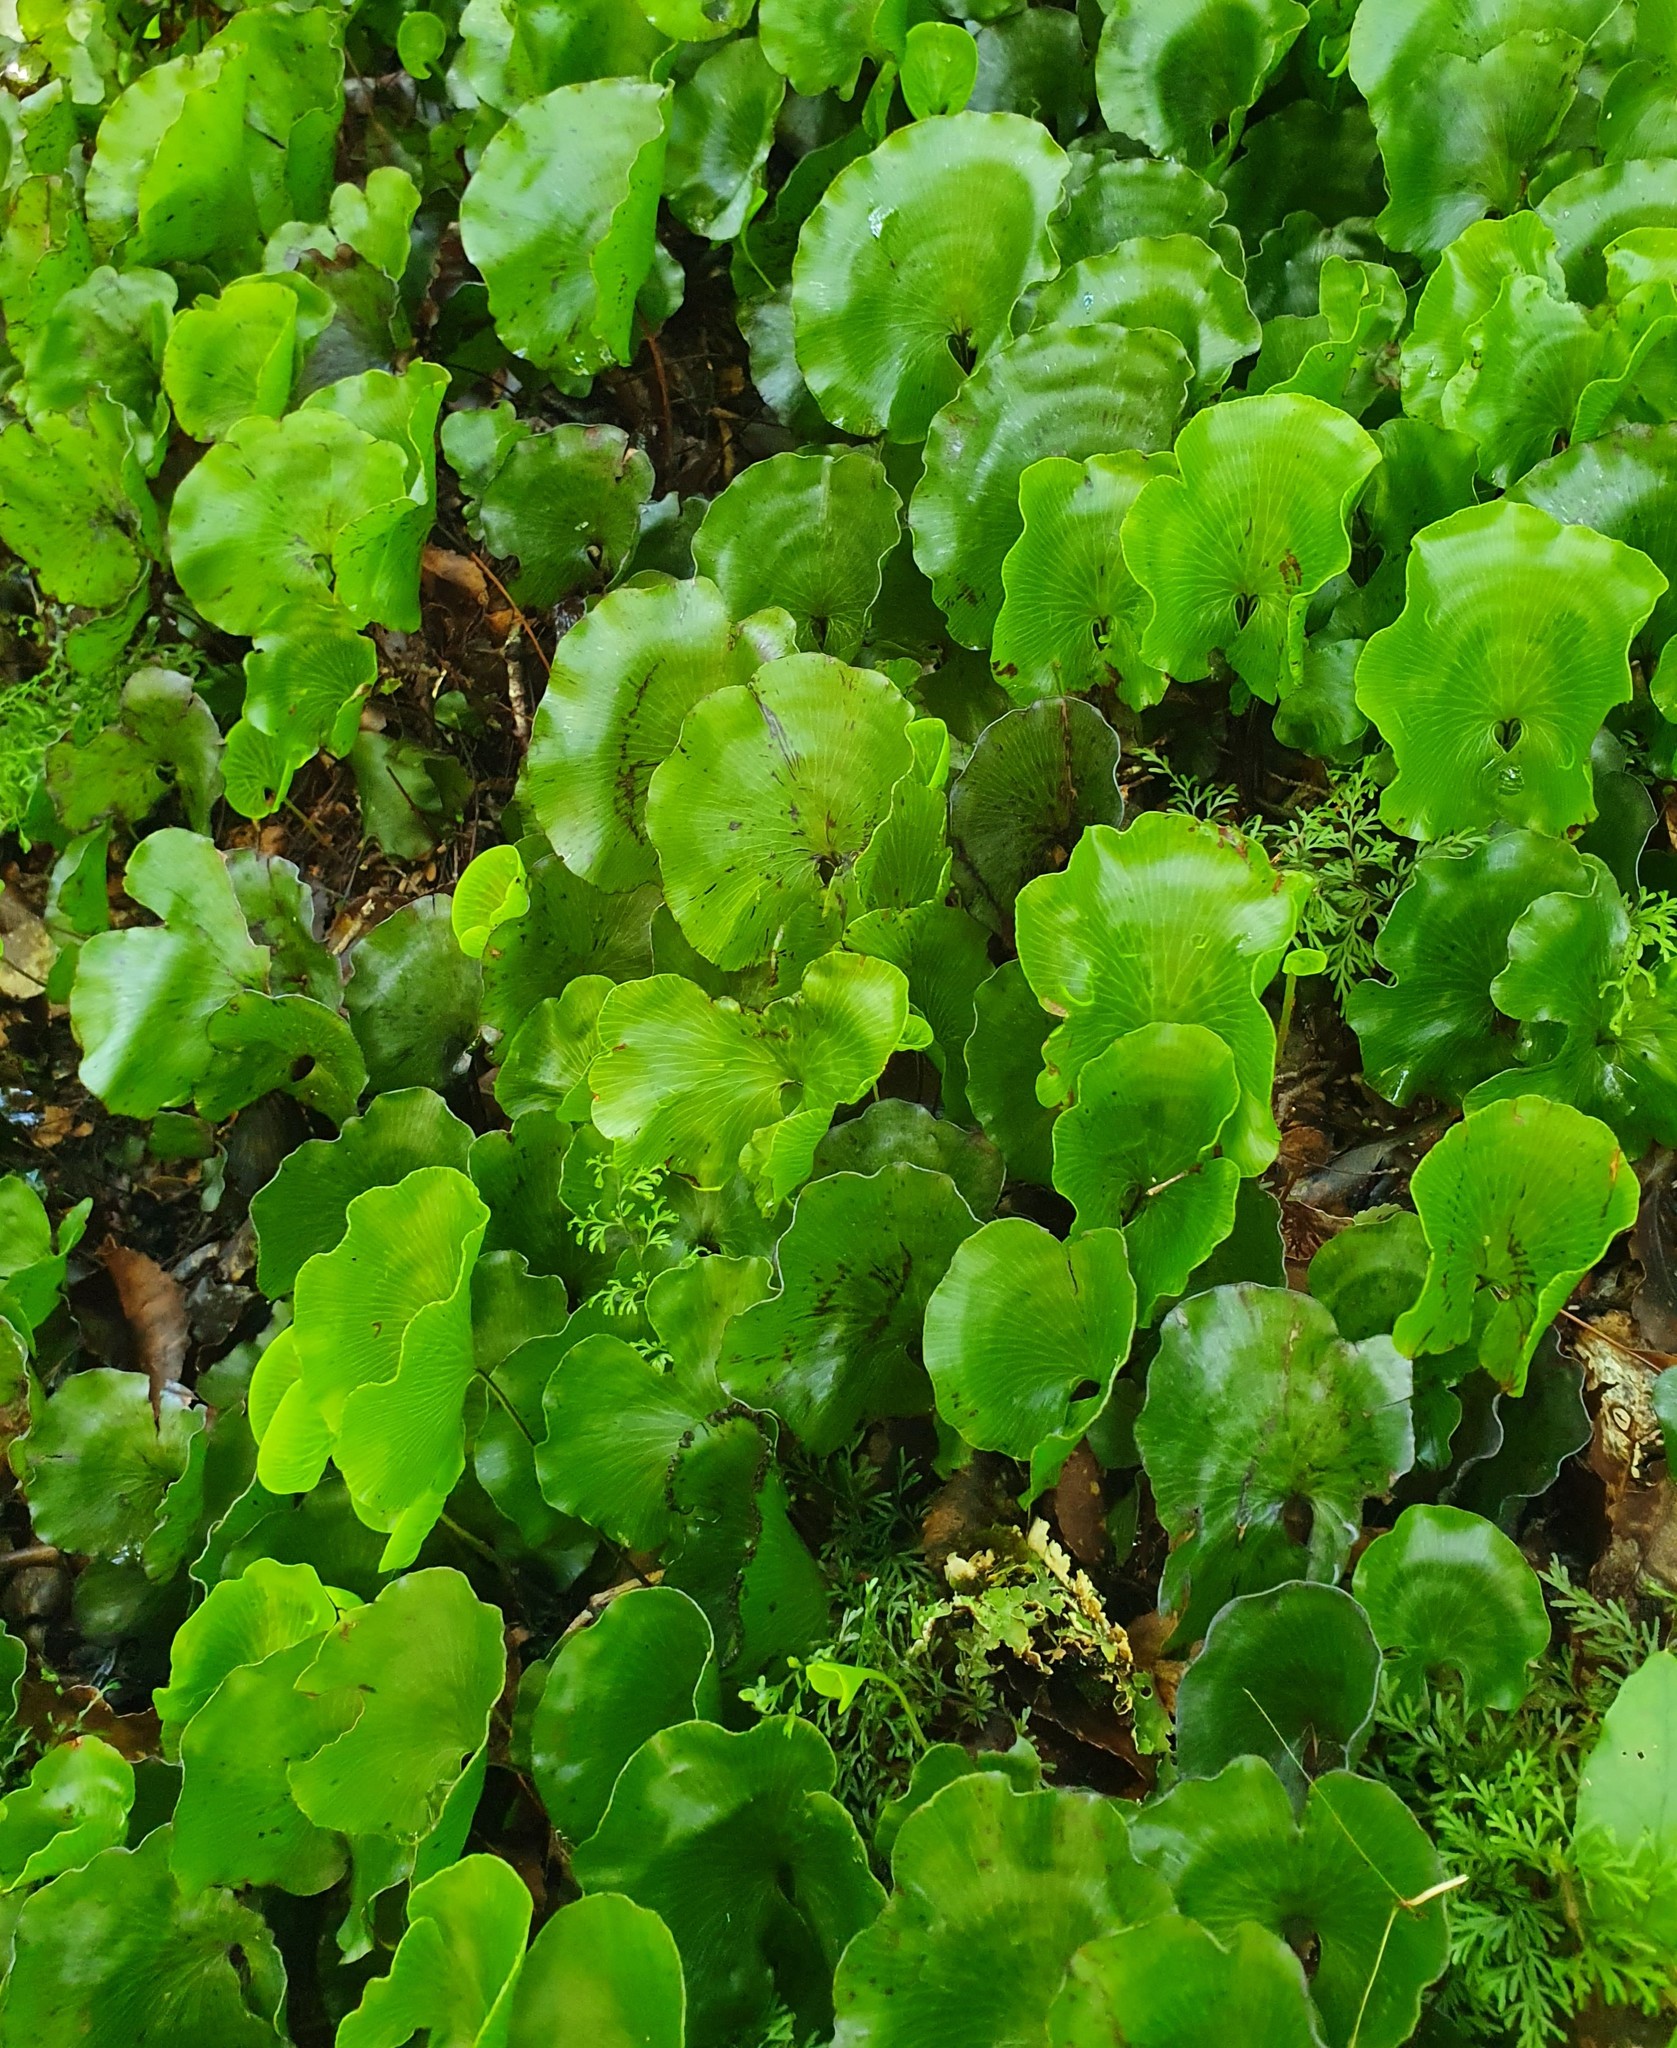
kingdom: Plantae
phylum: Tracheophyta
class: Polypodiopsida
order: Hymenophyllales
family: Hymenophyllaceae
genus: Hymenophyllum
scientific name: Hymenophyllum nephrophyllum
